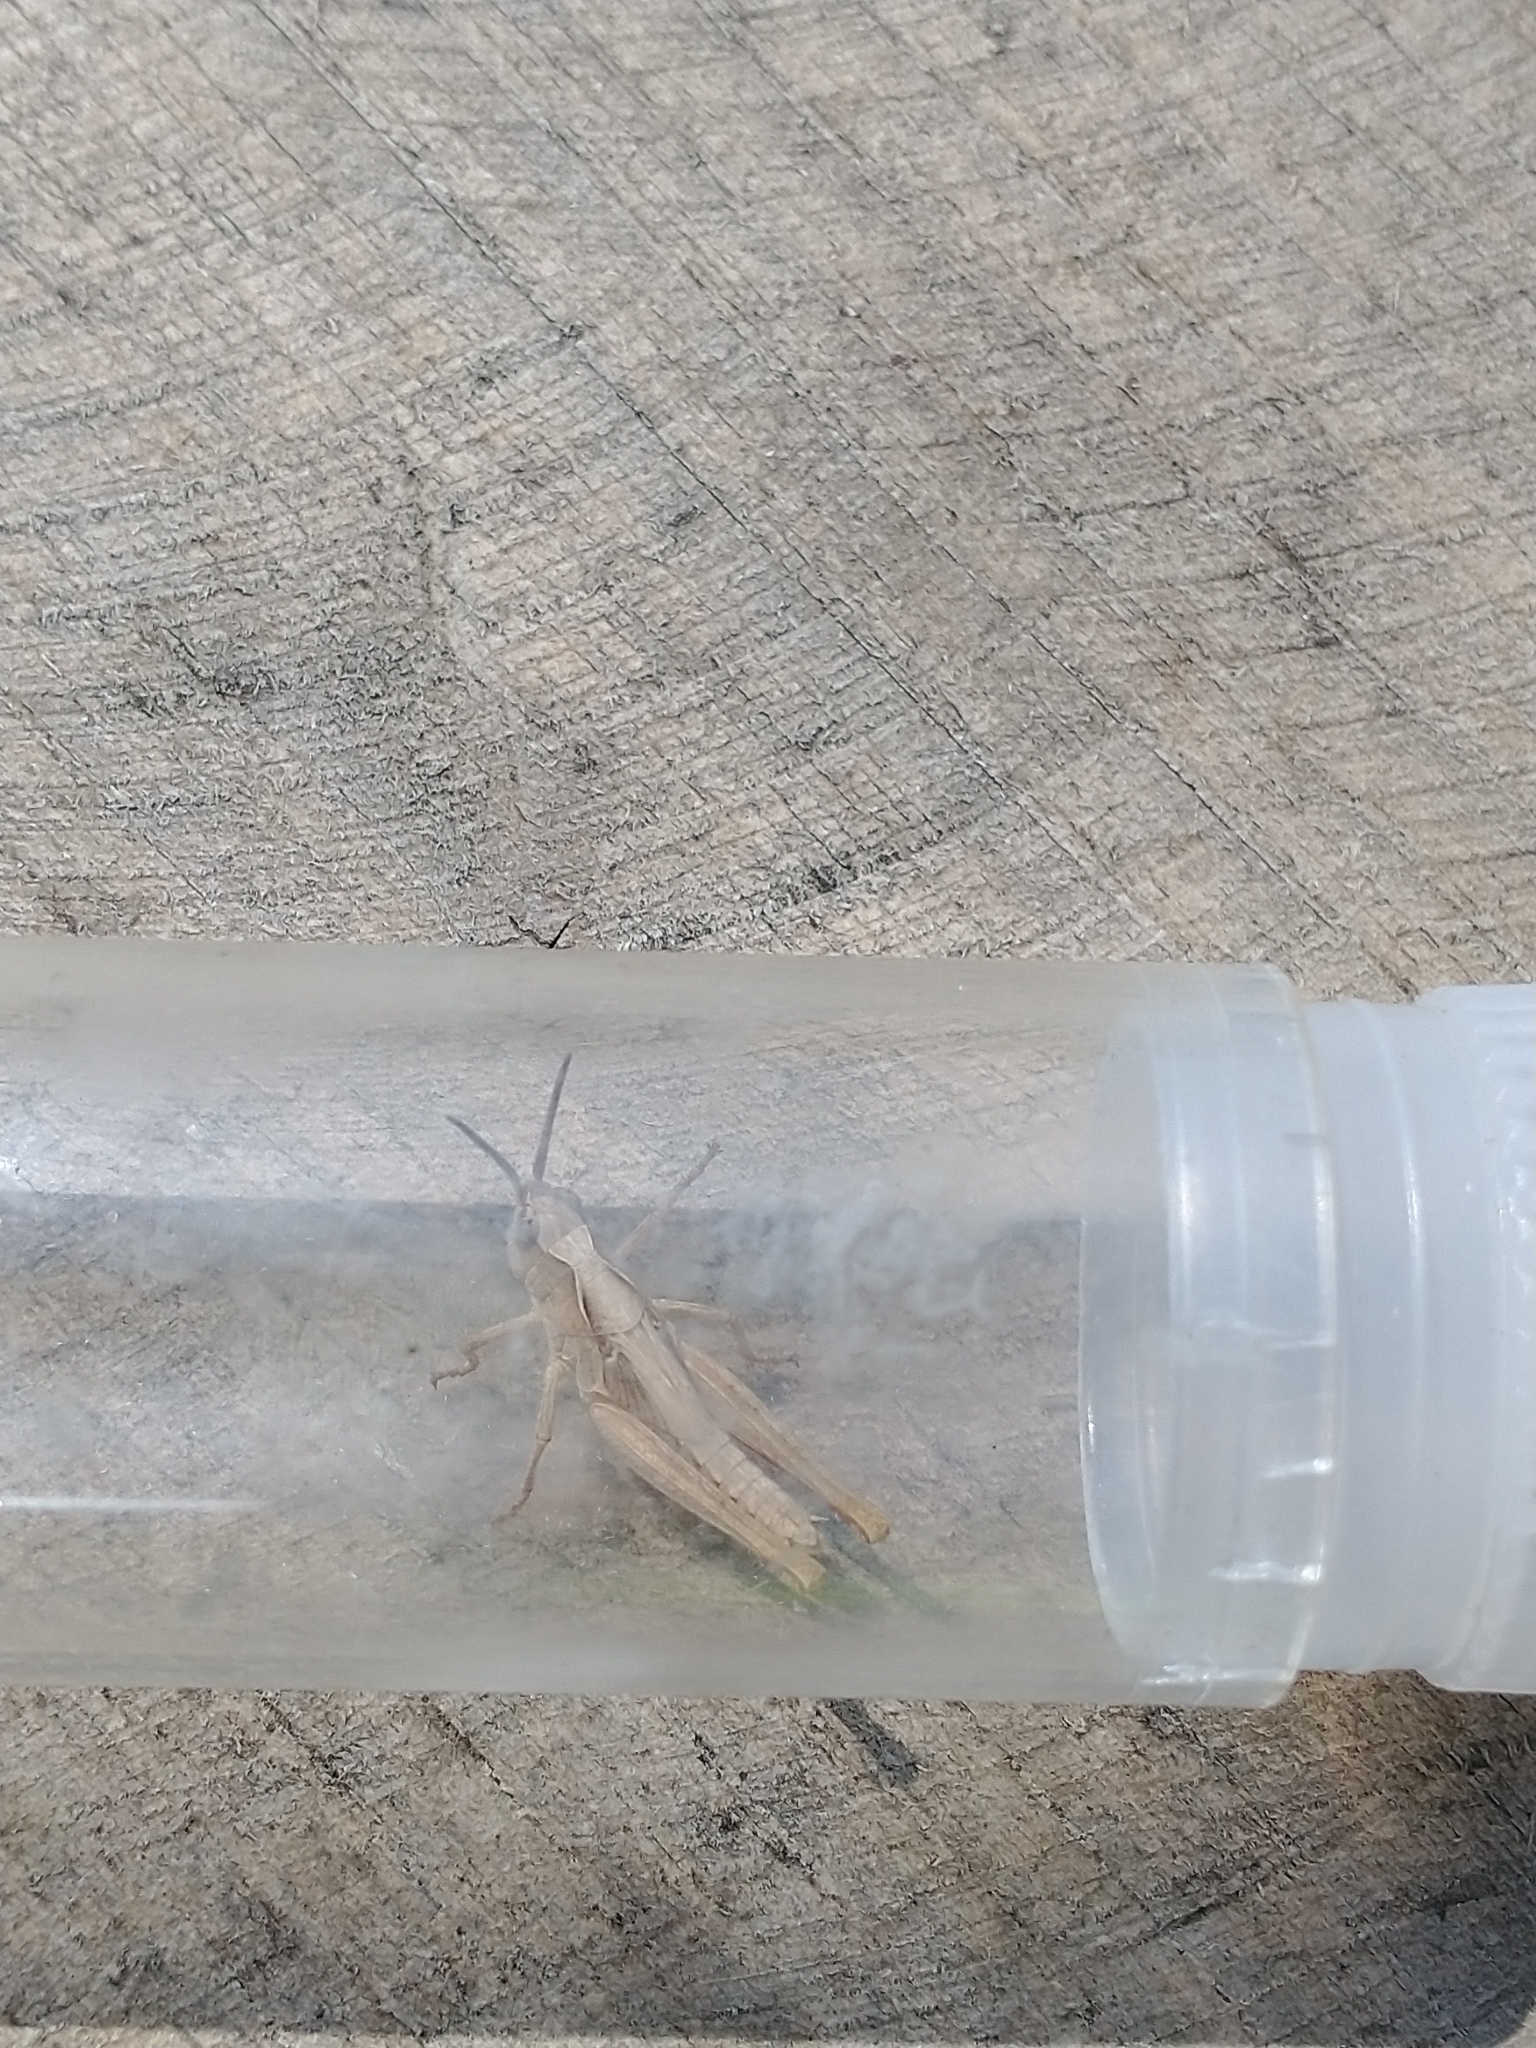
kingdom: Animalia
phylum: Arthropoda
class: Insecta
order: Orthoptera
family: Acrididae
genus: Chorthippus
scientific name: Chorthippus brunneus
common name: Field grasshopper
